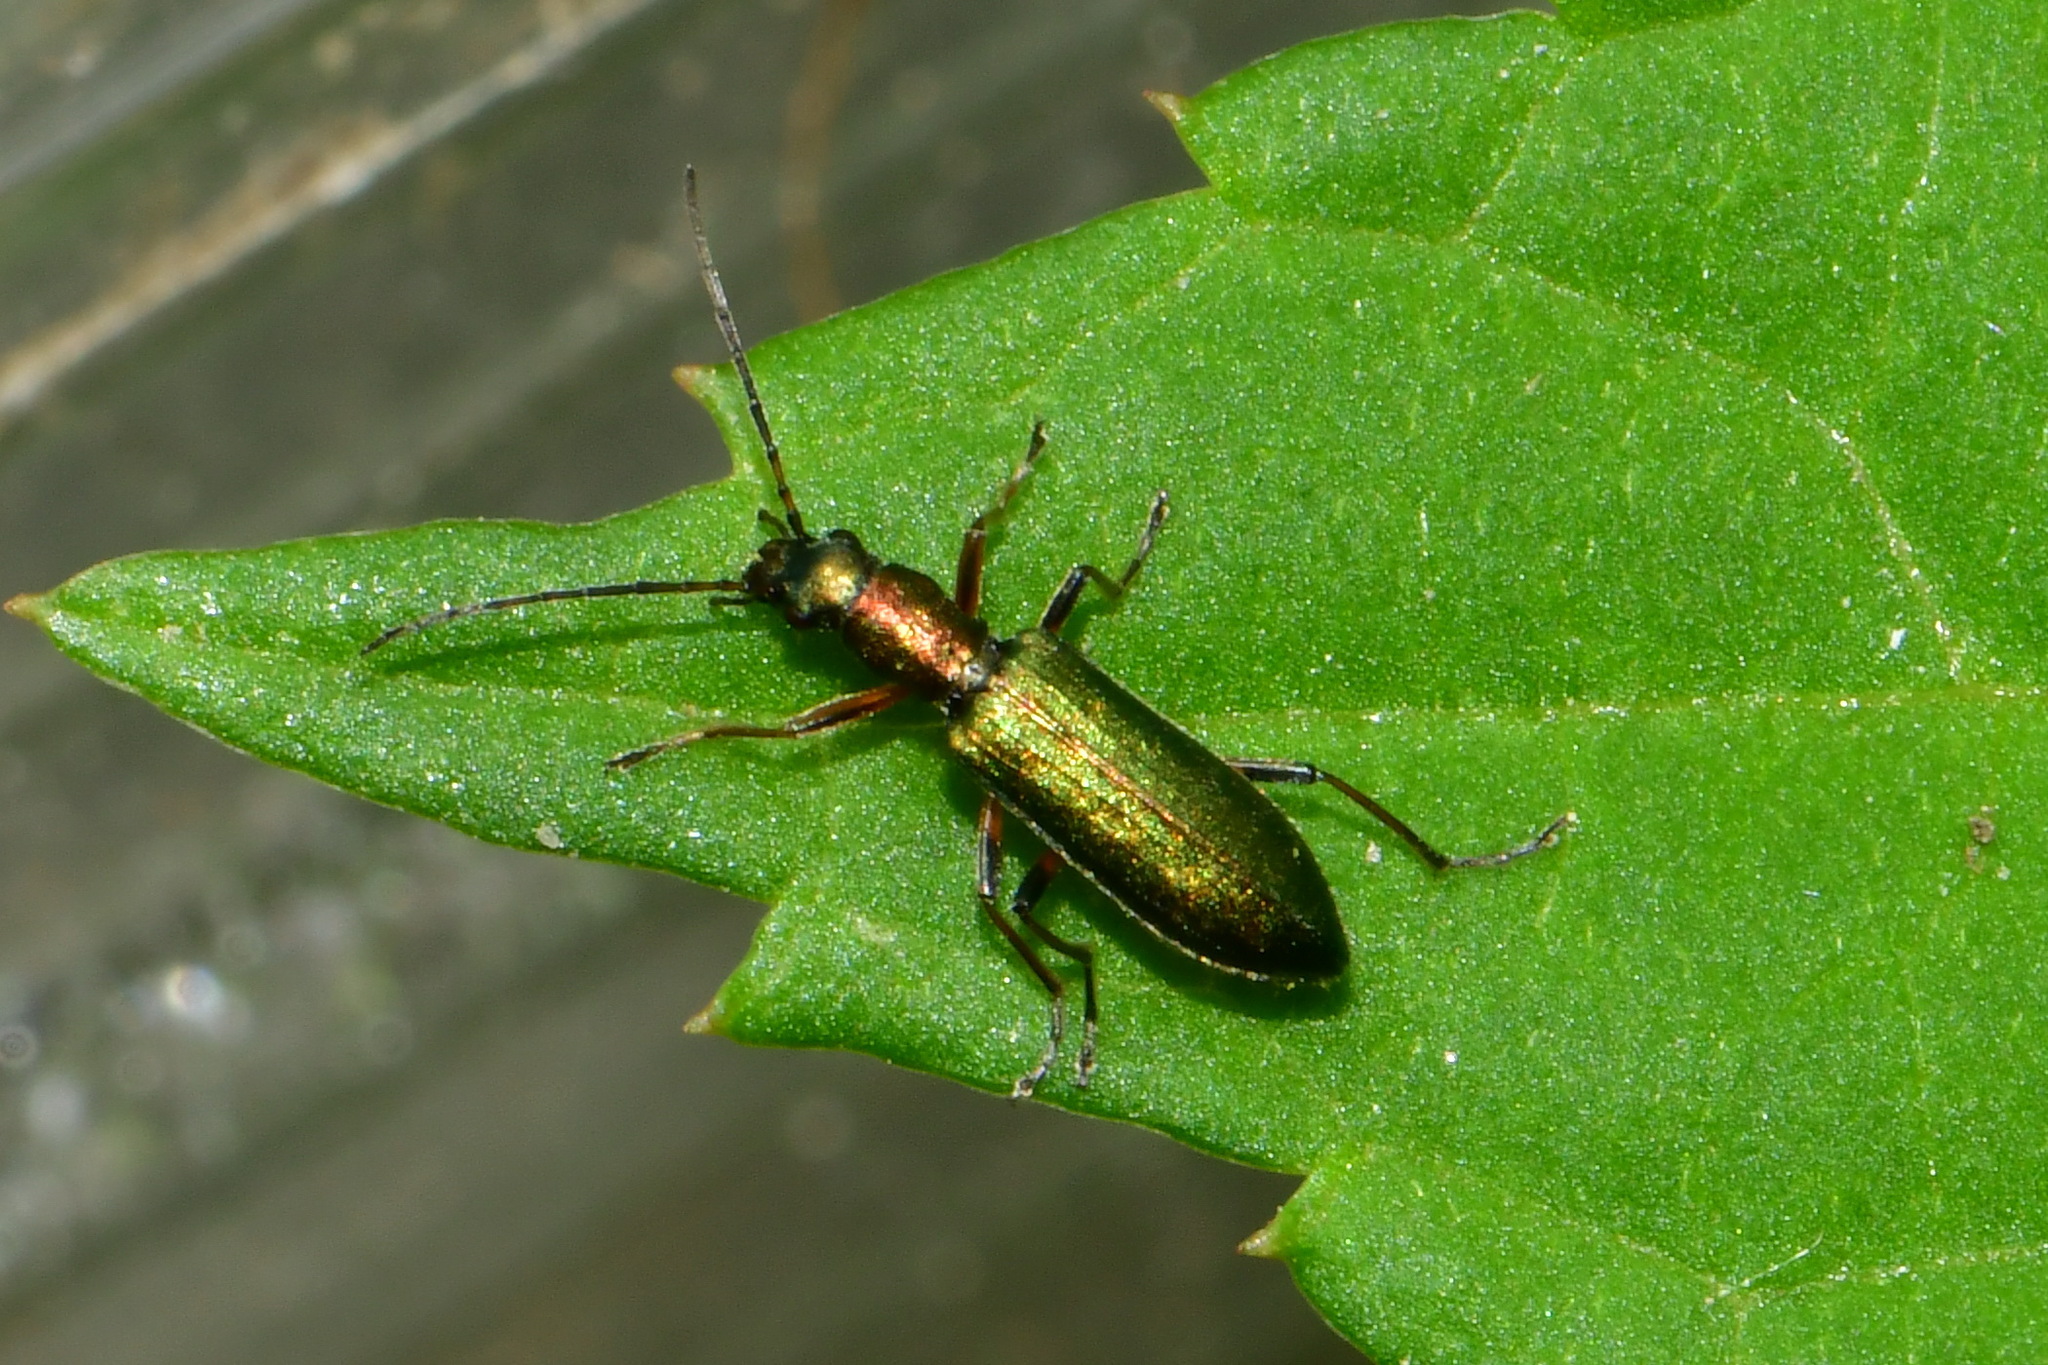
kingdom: Animalia
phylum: Arthropoda
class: Insecta
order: Coleoptera
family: Oedemeridae
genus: Chrysanthia
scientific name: Chrysanthia geniculata
